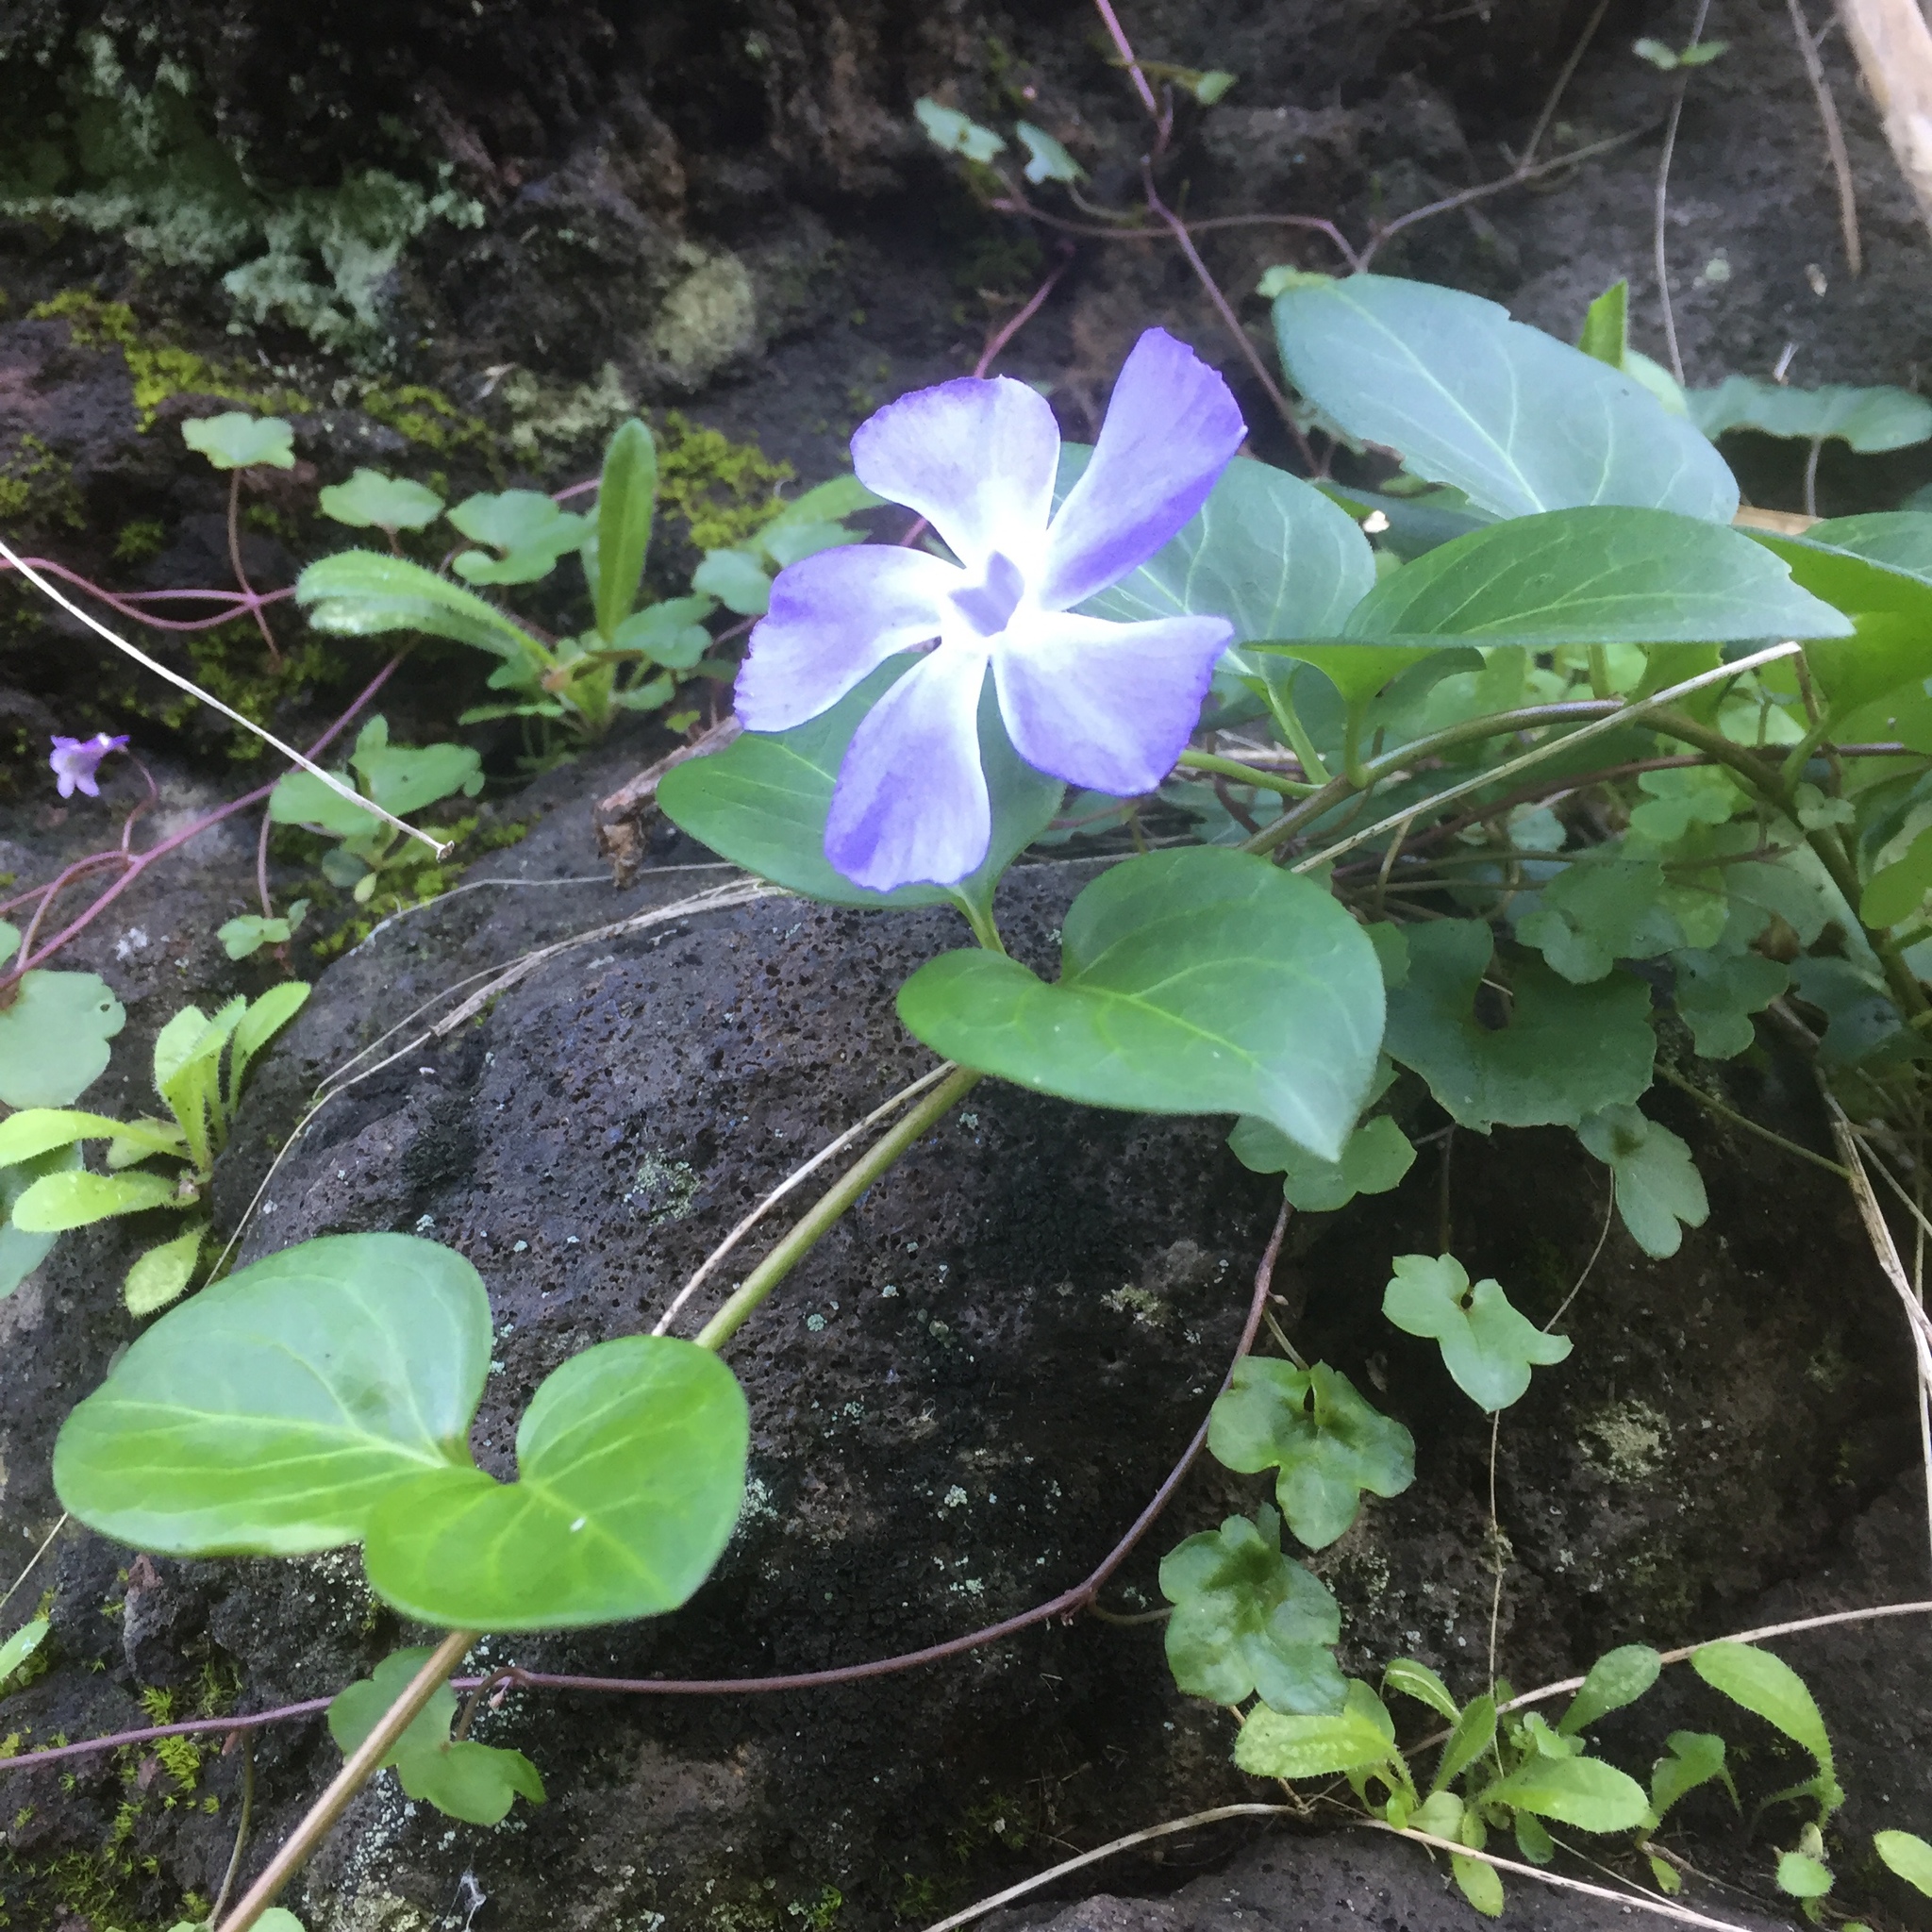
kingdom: Plantae
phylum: Tracheophyta
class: Magnoliopsida
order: Gentianales
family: Apocynaceae
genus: Vinca
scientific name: Vinca major
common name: Greater periwinkle
